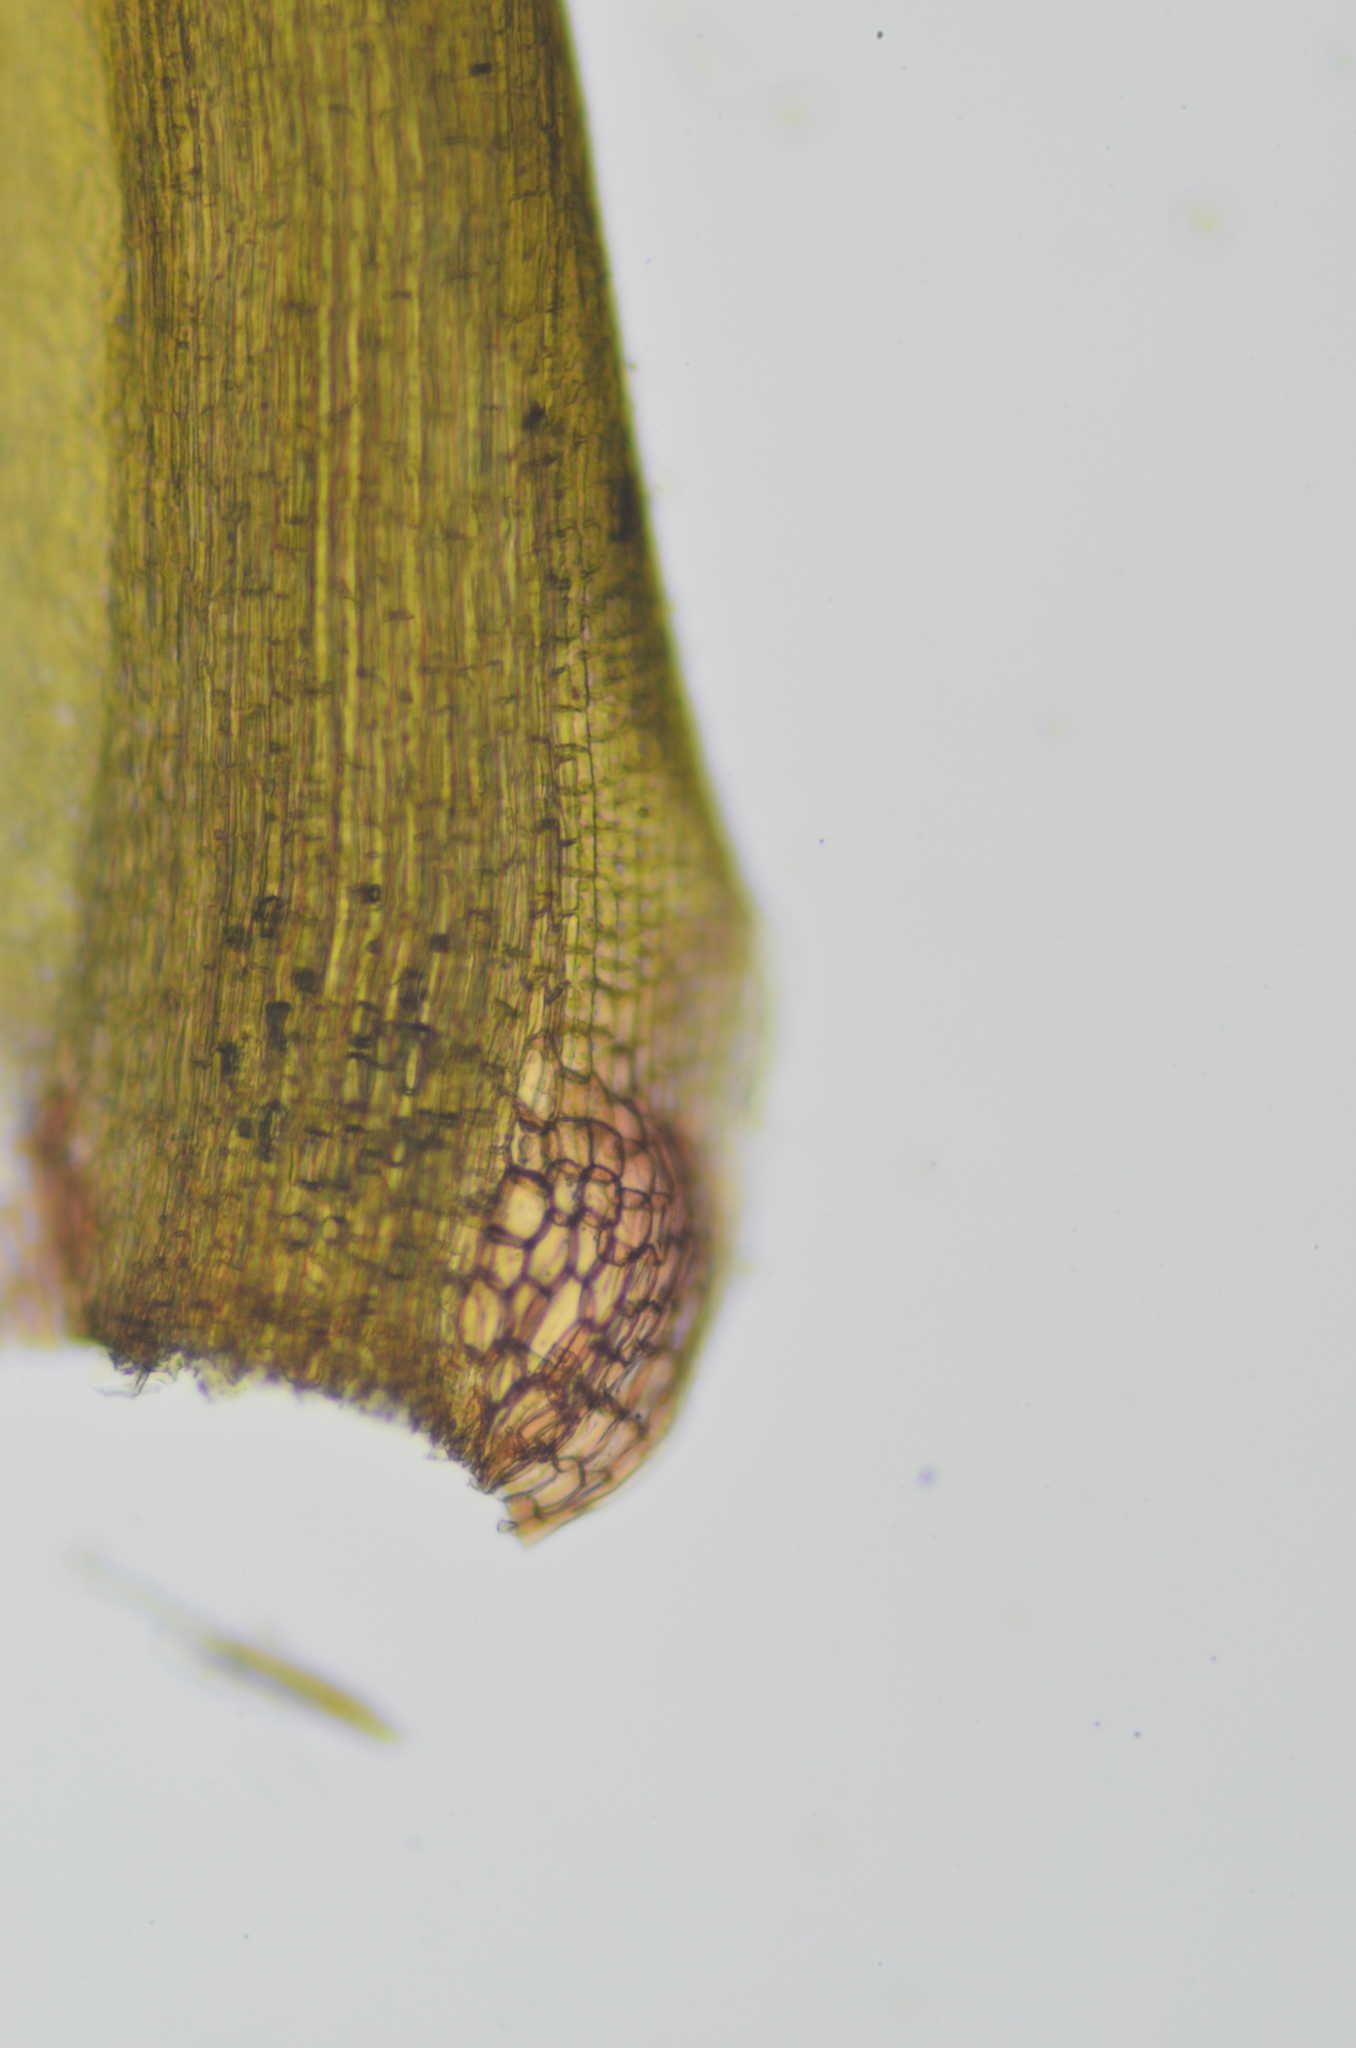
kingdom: Plantae
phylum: Bryophyta
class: Bryopsida
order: Dicranales
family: Leucobryaceae
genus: Campylopus
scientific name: Campylopus atrovirens
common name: Bristly swan-neck moss
